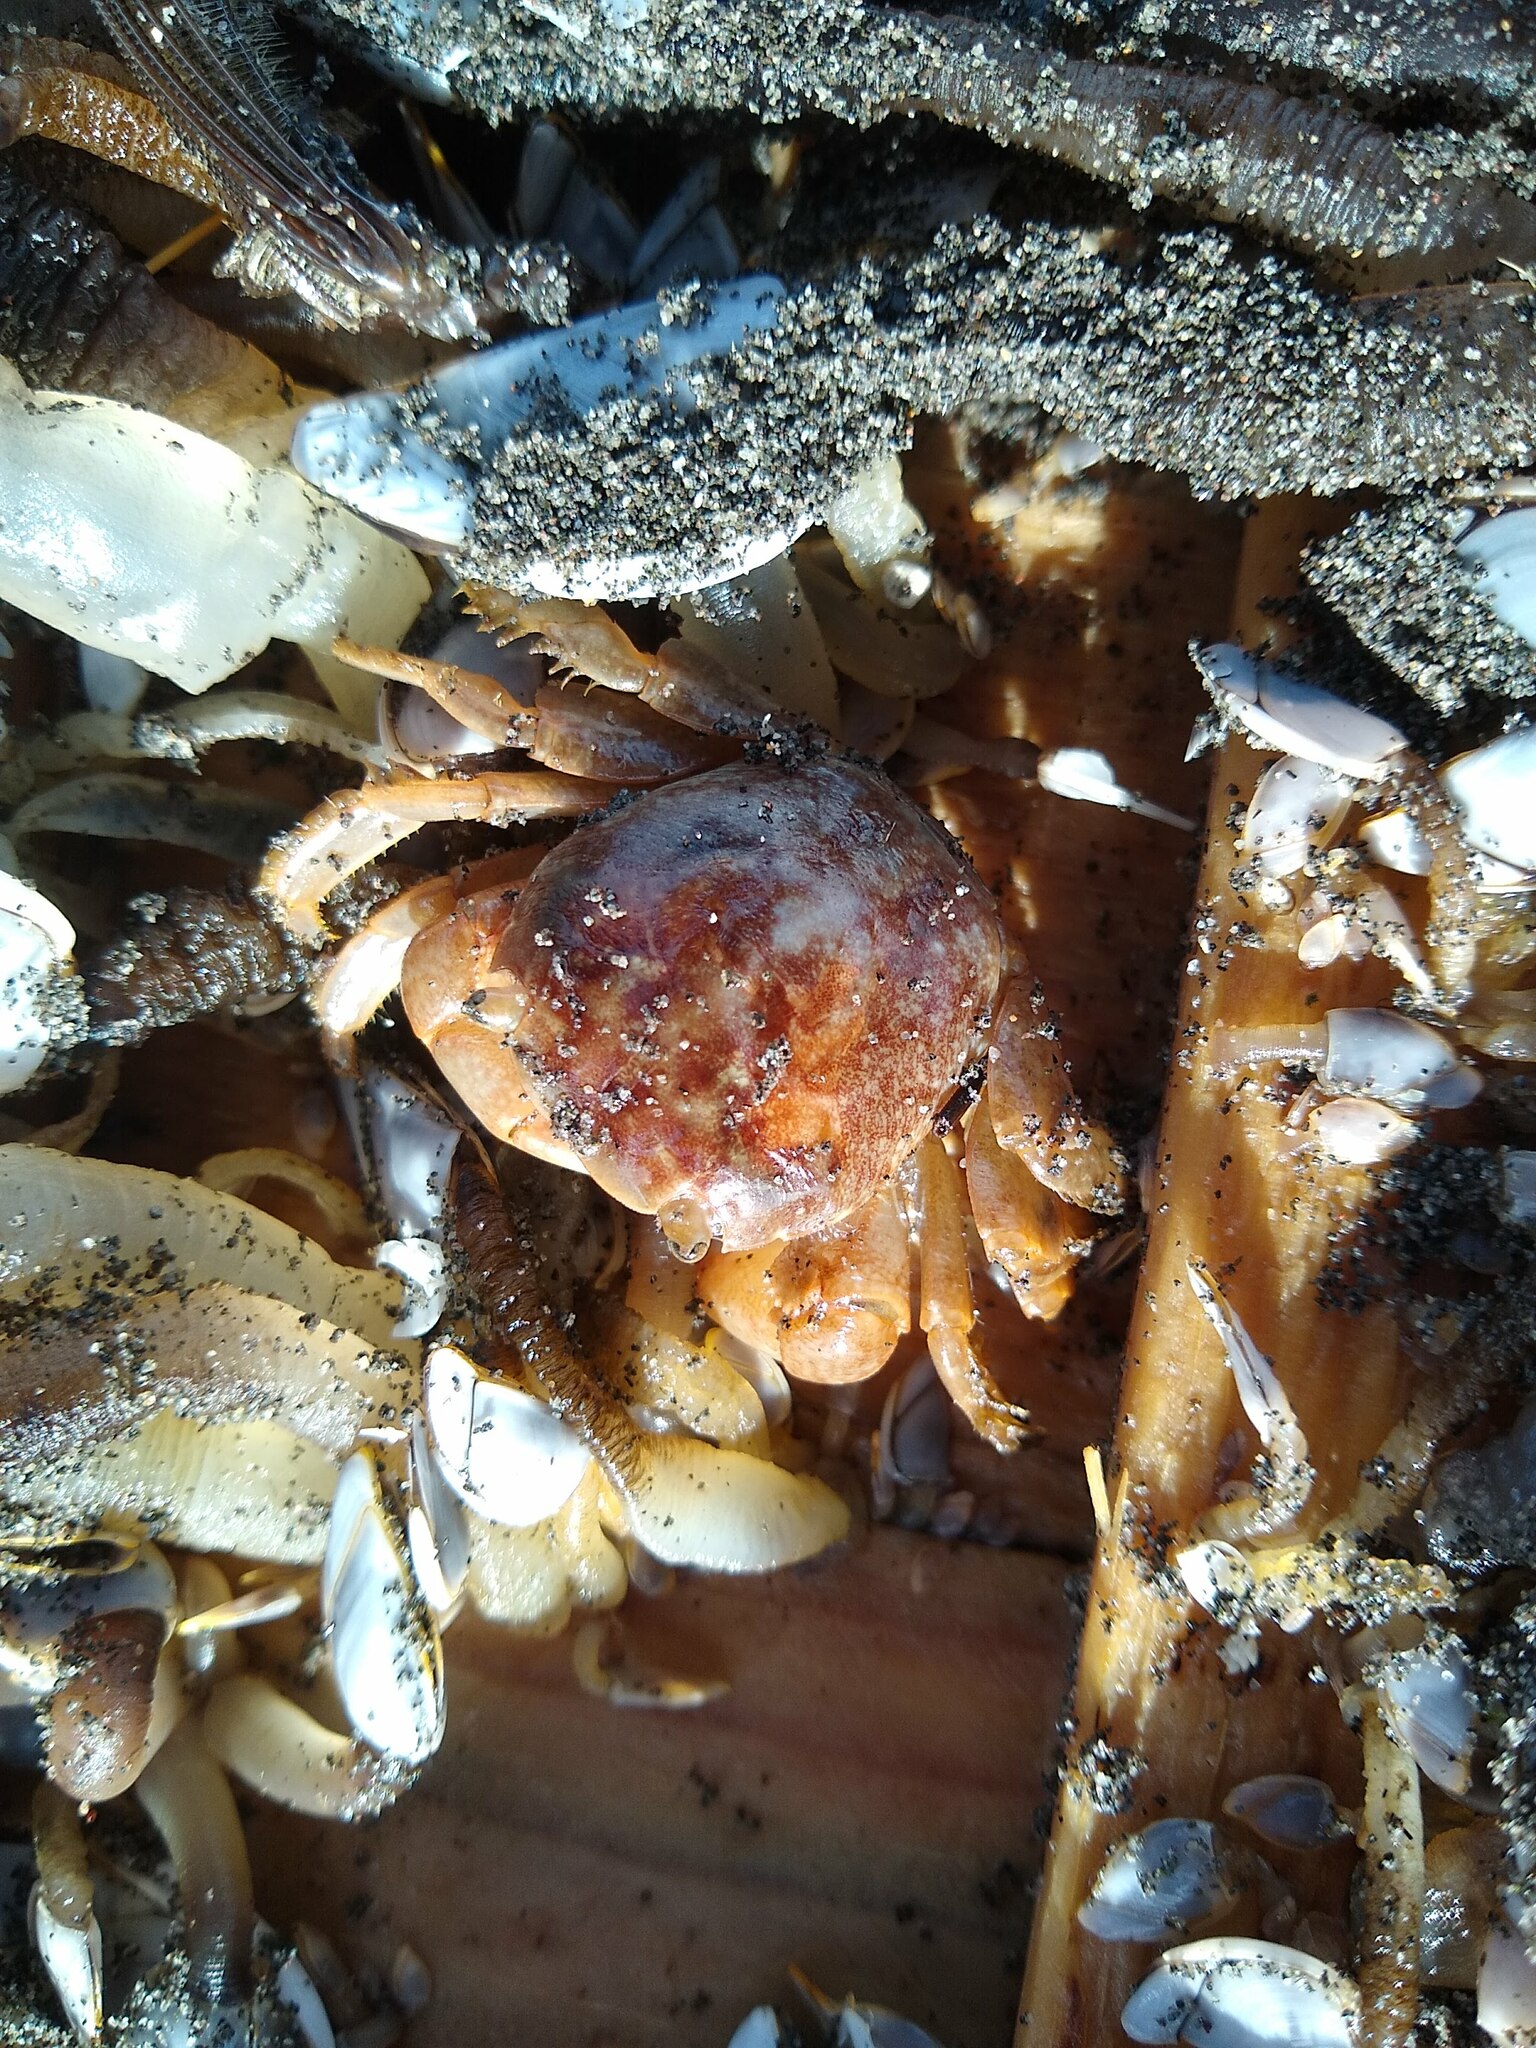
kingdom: Animalia
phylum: Arthropoda
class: Malacostraca
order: Decapoda
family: Grapsidae
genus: Planes
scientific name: Planes minutus
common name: Gulf weed crab
